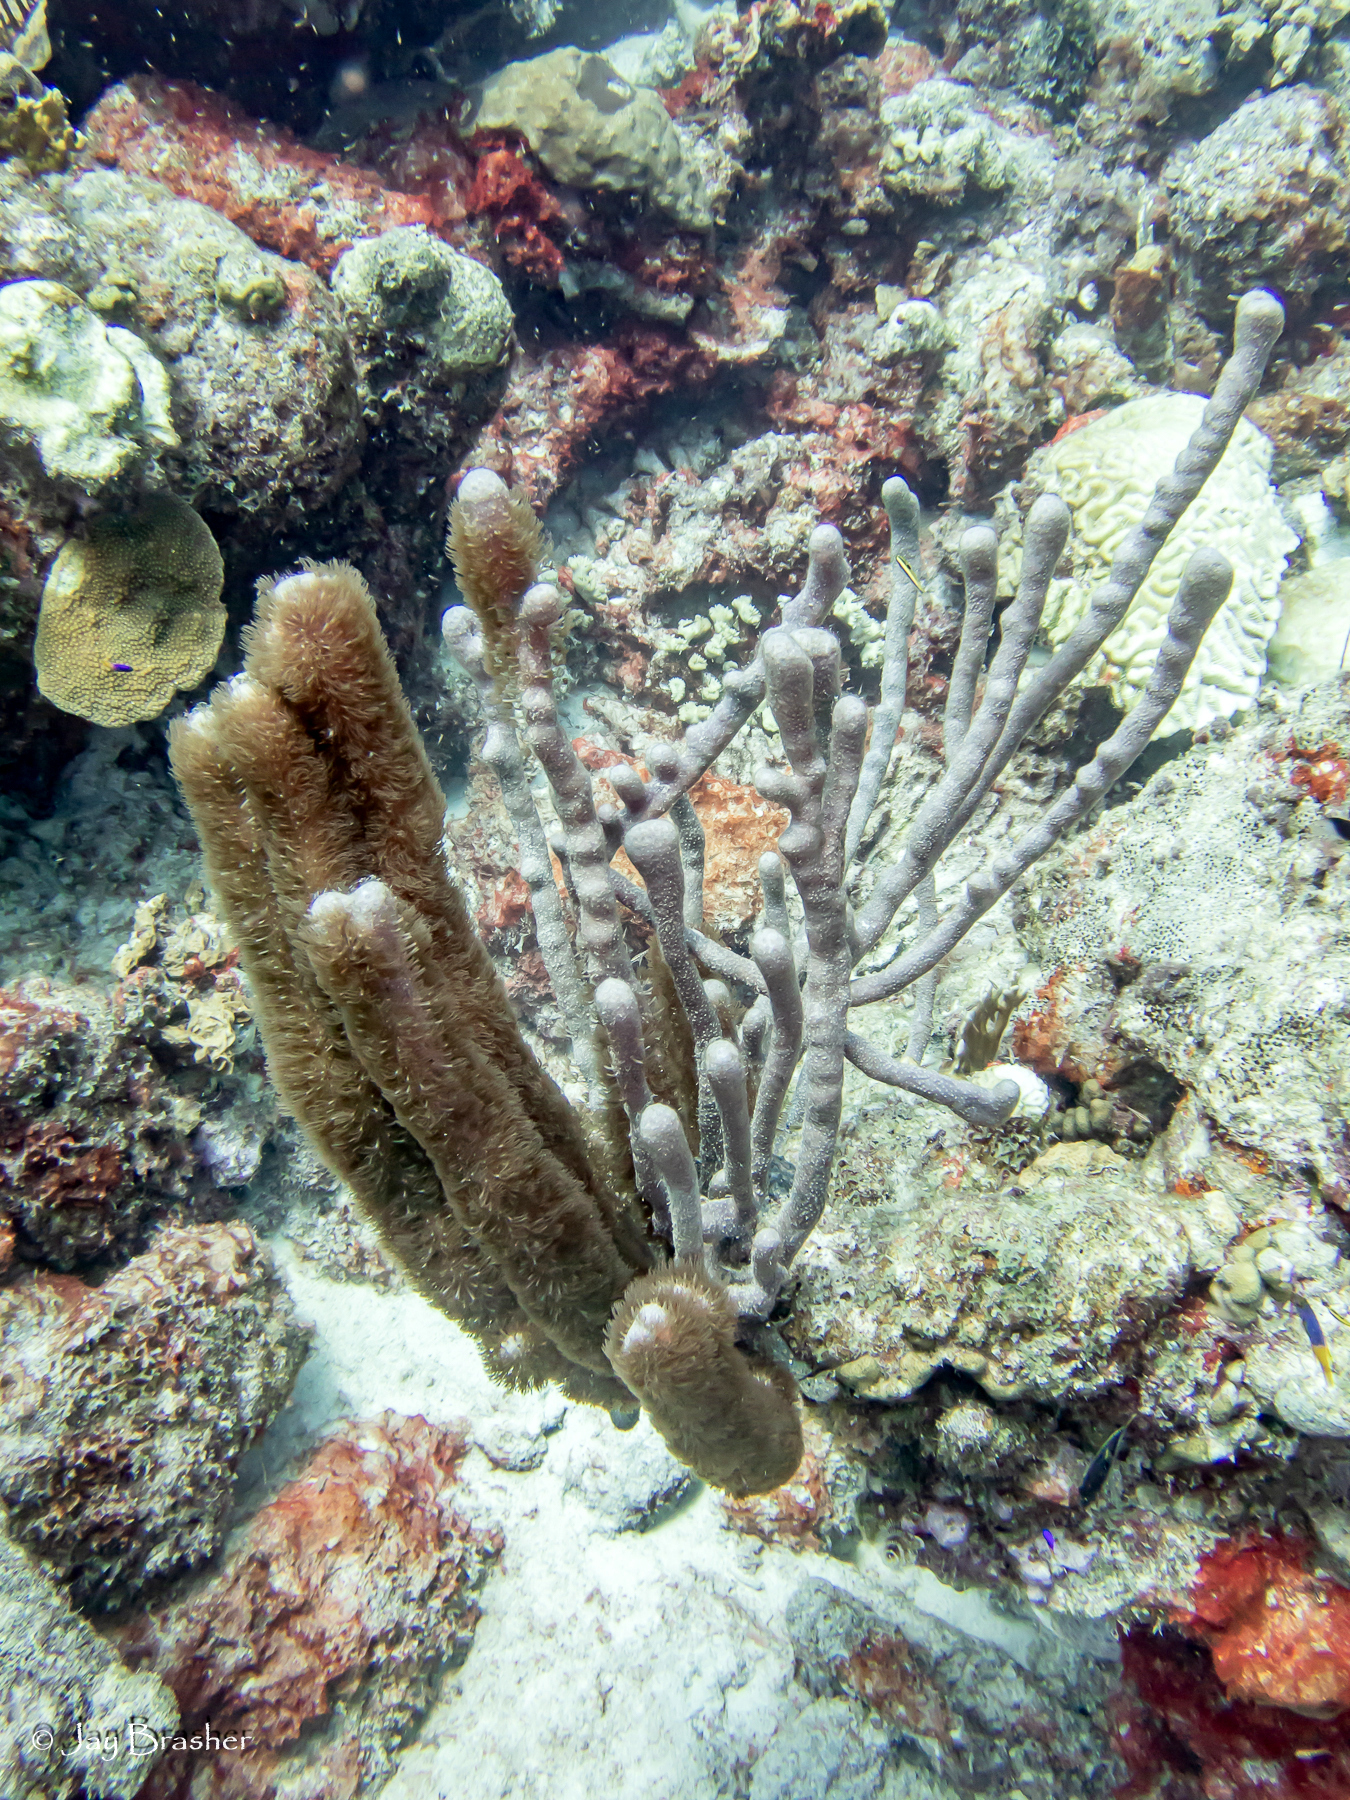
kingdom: Animalia
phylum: Cnidaria
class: Anthozoa
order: Scleralcyonacea
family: Briareidae
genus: Briareum
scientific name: Briareum asbestinum
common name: Corky sea finger
